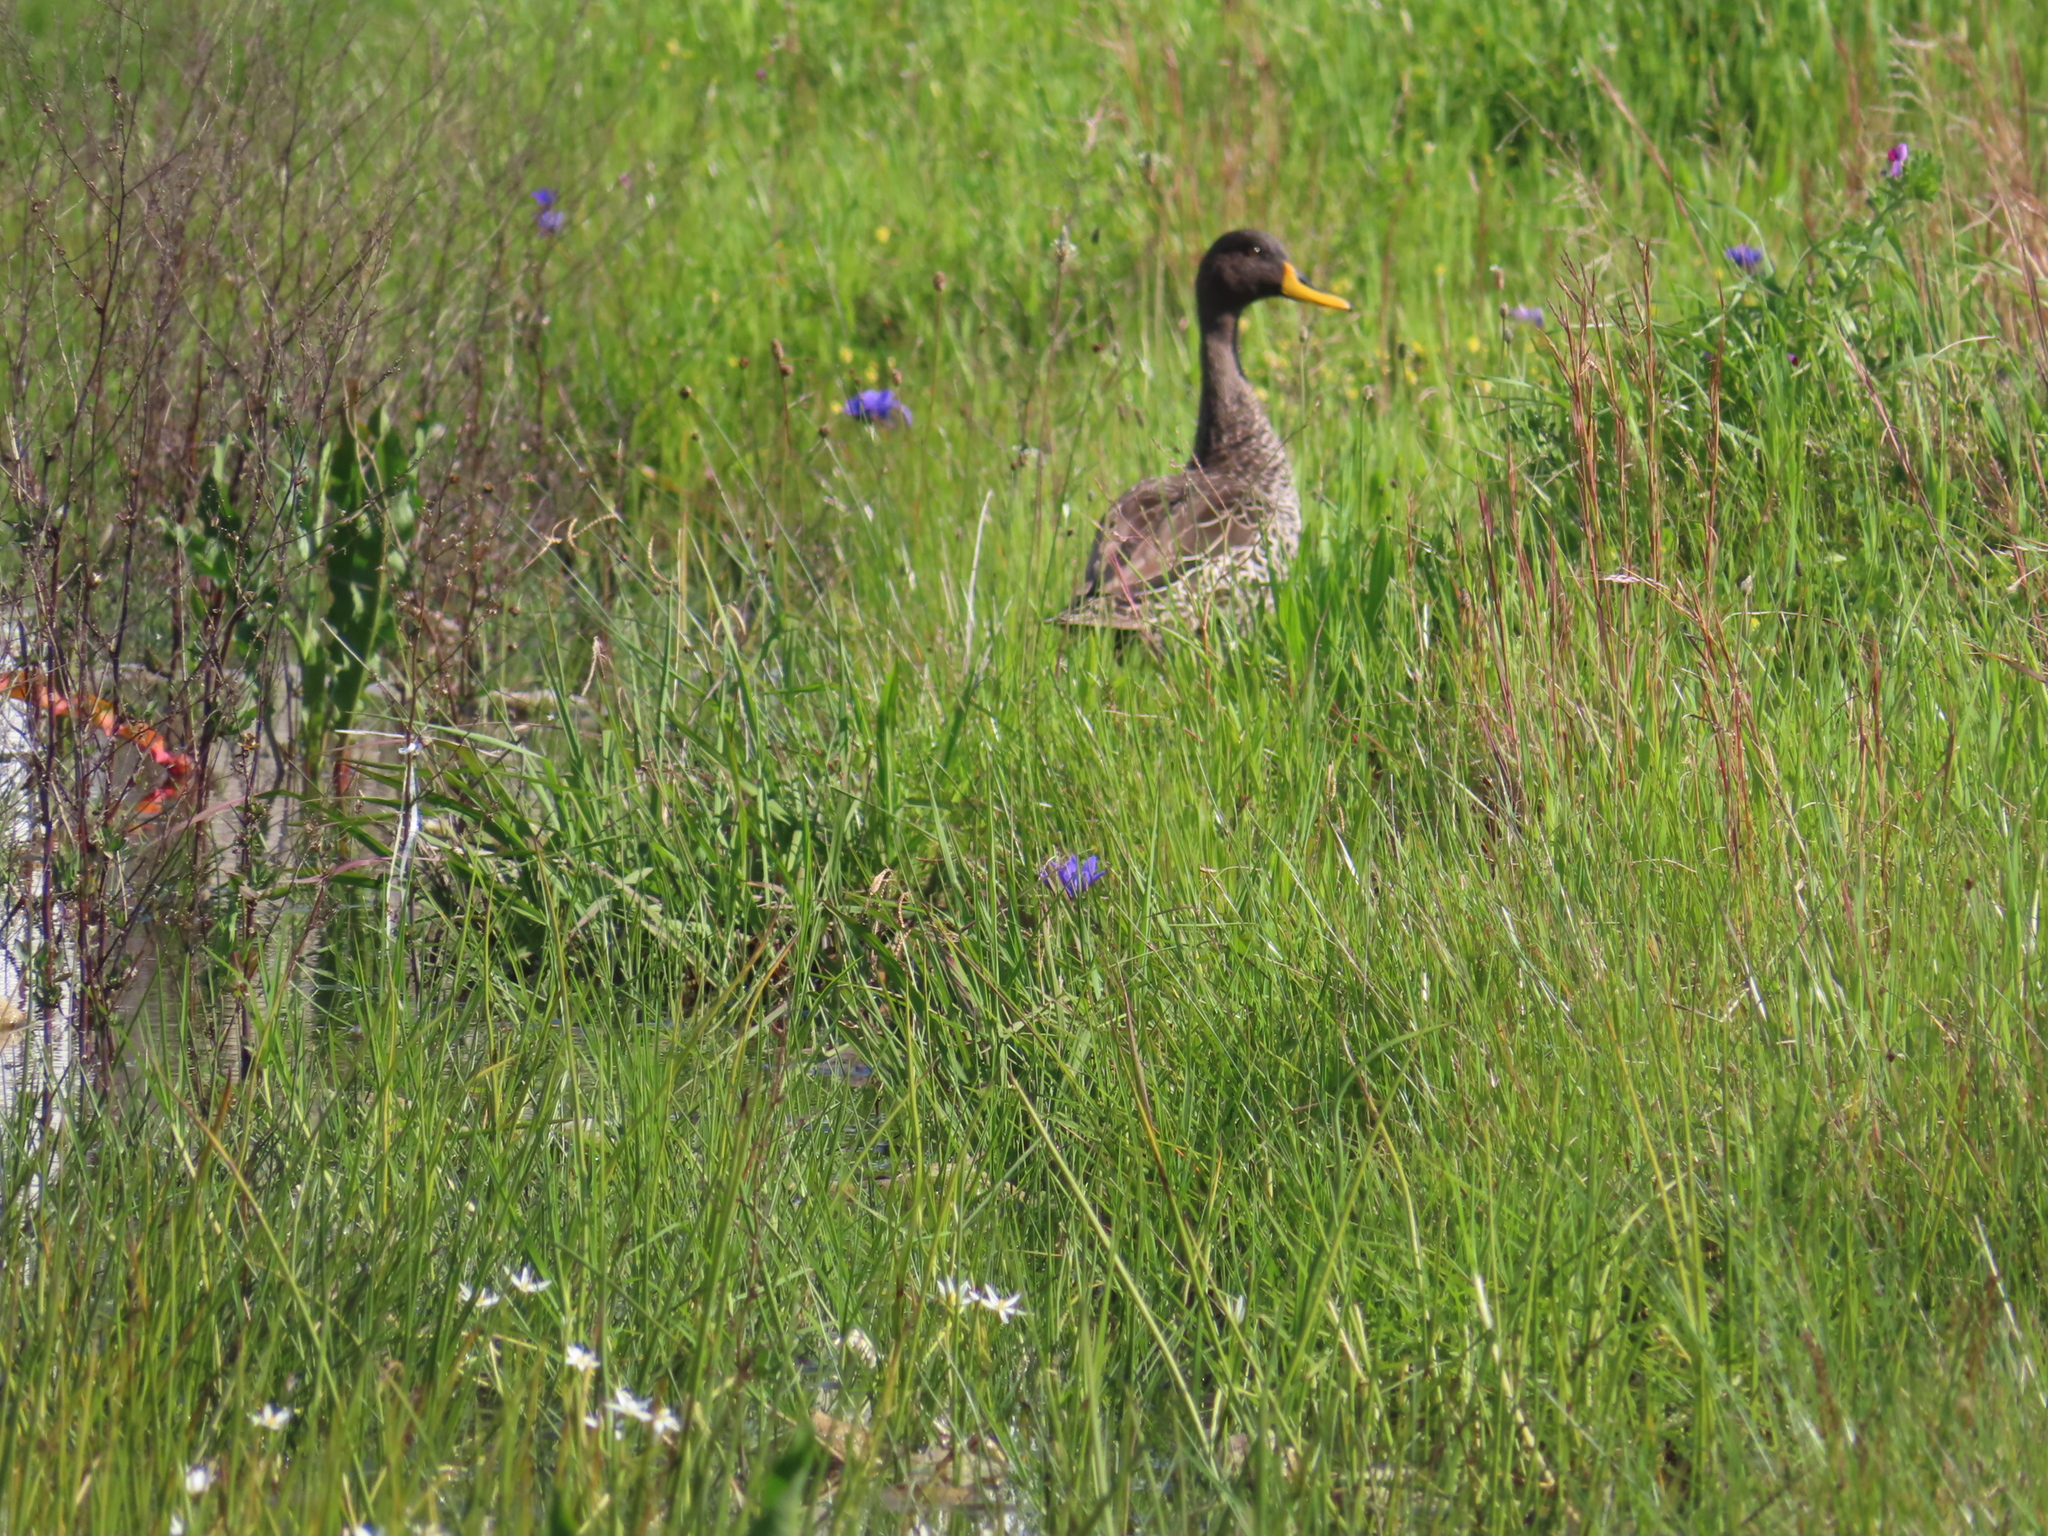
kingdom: Animalia
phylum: Chordata
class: Aves
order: Anseriformes
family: Anatidae
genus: Anas
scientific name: Anas undulata
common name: Yellow-billed duck
